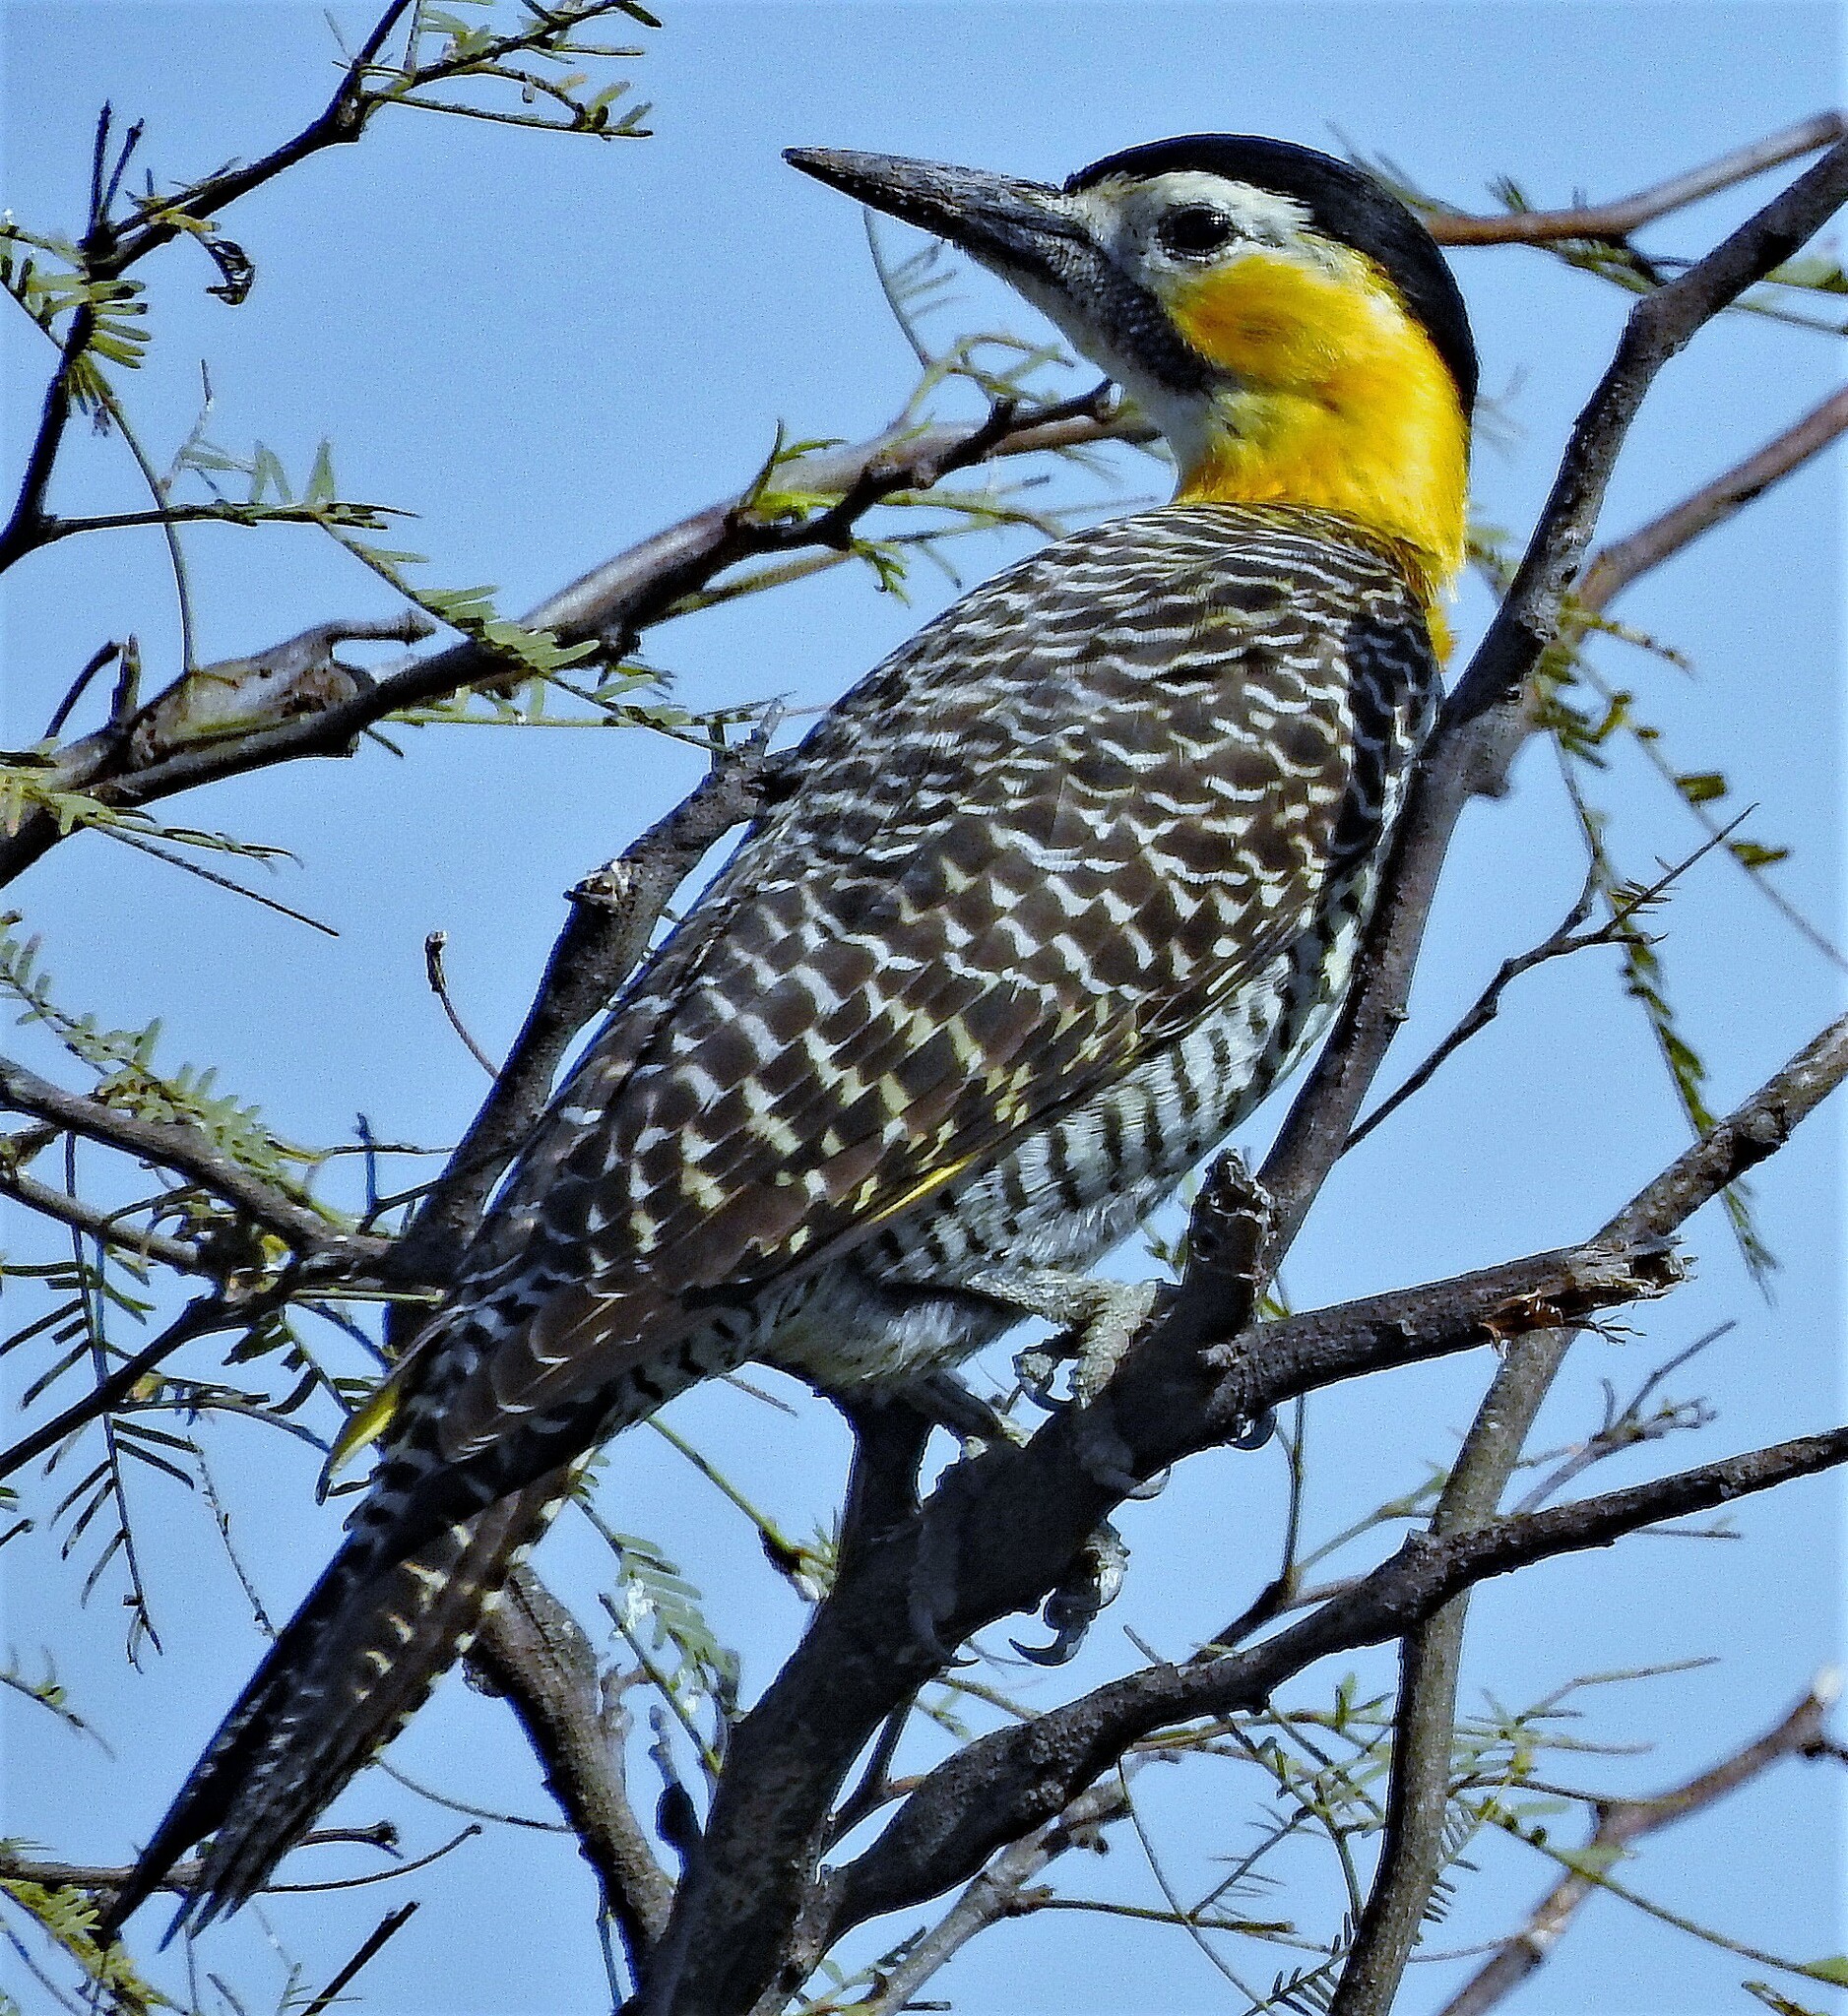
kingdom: Animalia
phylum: Chordata
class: Aves
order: Piciformes
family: Picidae
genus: Colaptes
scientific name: Colaptes campestris
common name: Campo flicker
